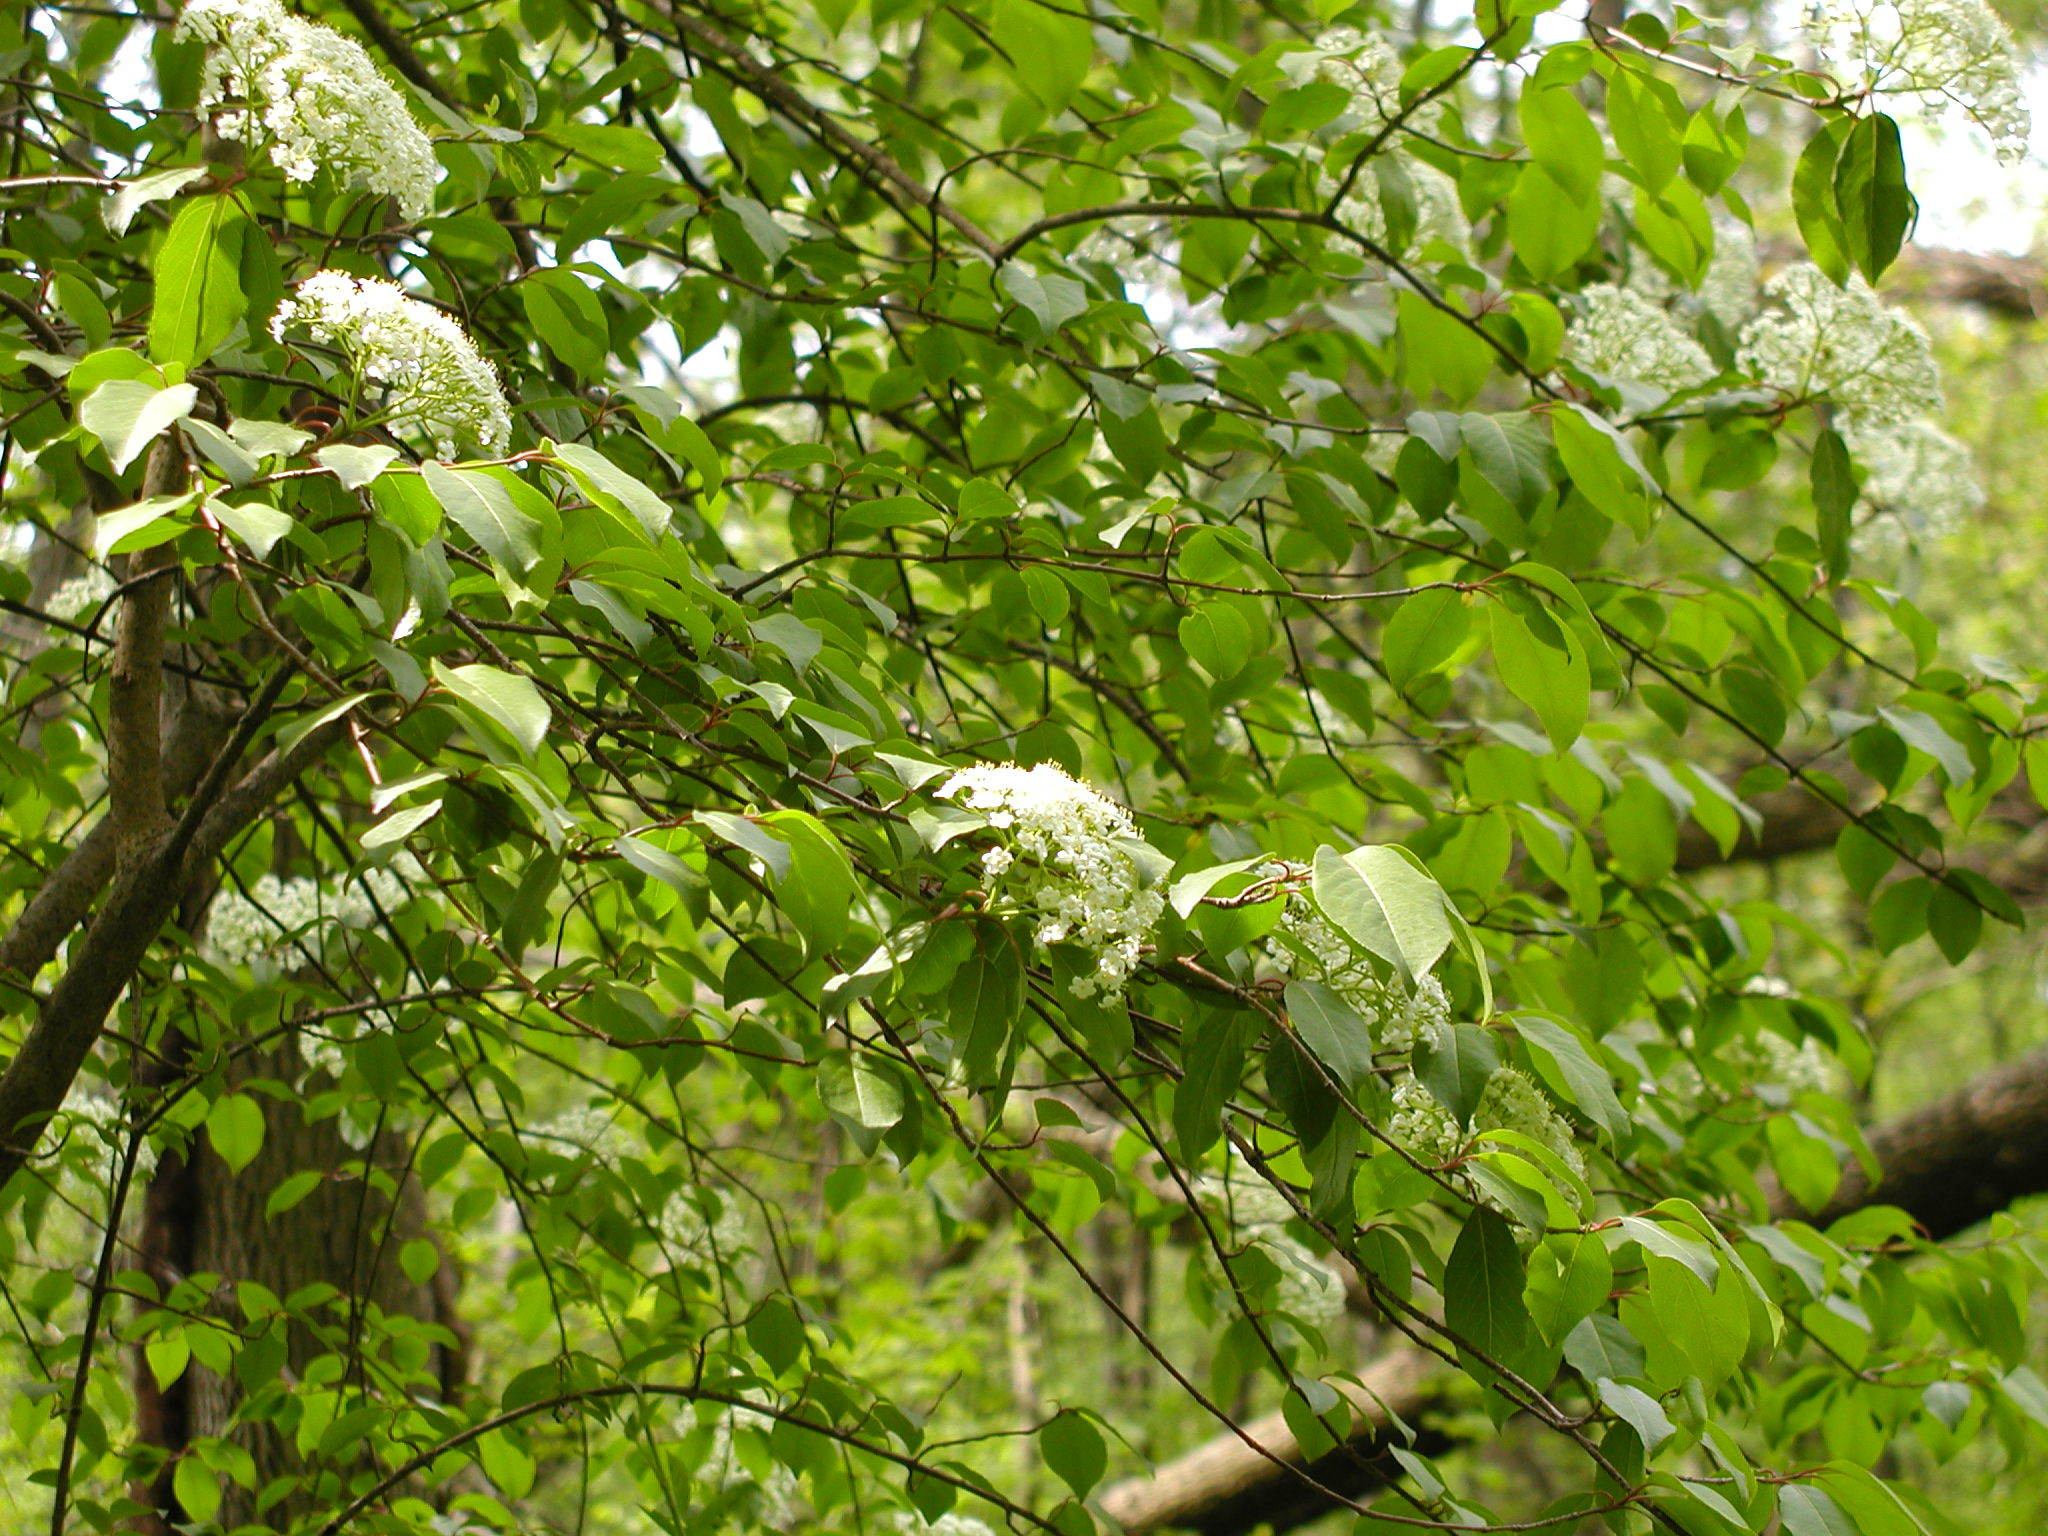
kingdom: Plantae
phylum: Tracheophyta
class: Magnoliopsida
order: Dipsacales
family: Viburnaceae
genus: Viburnum
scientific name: Viburnum prunifolium
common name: Black haw
